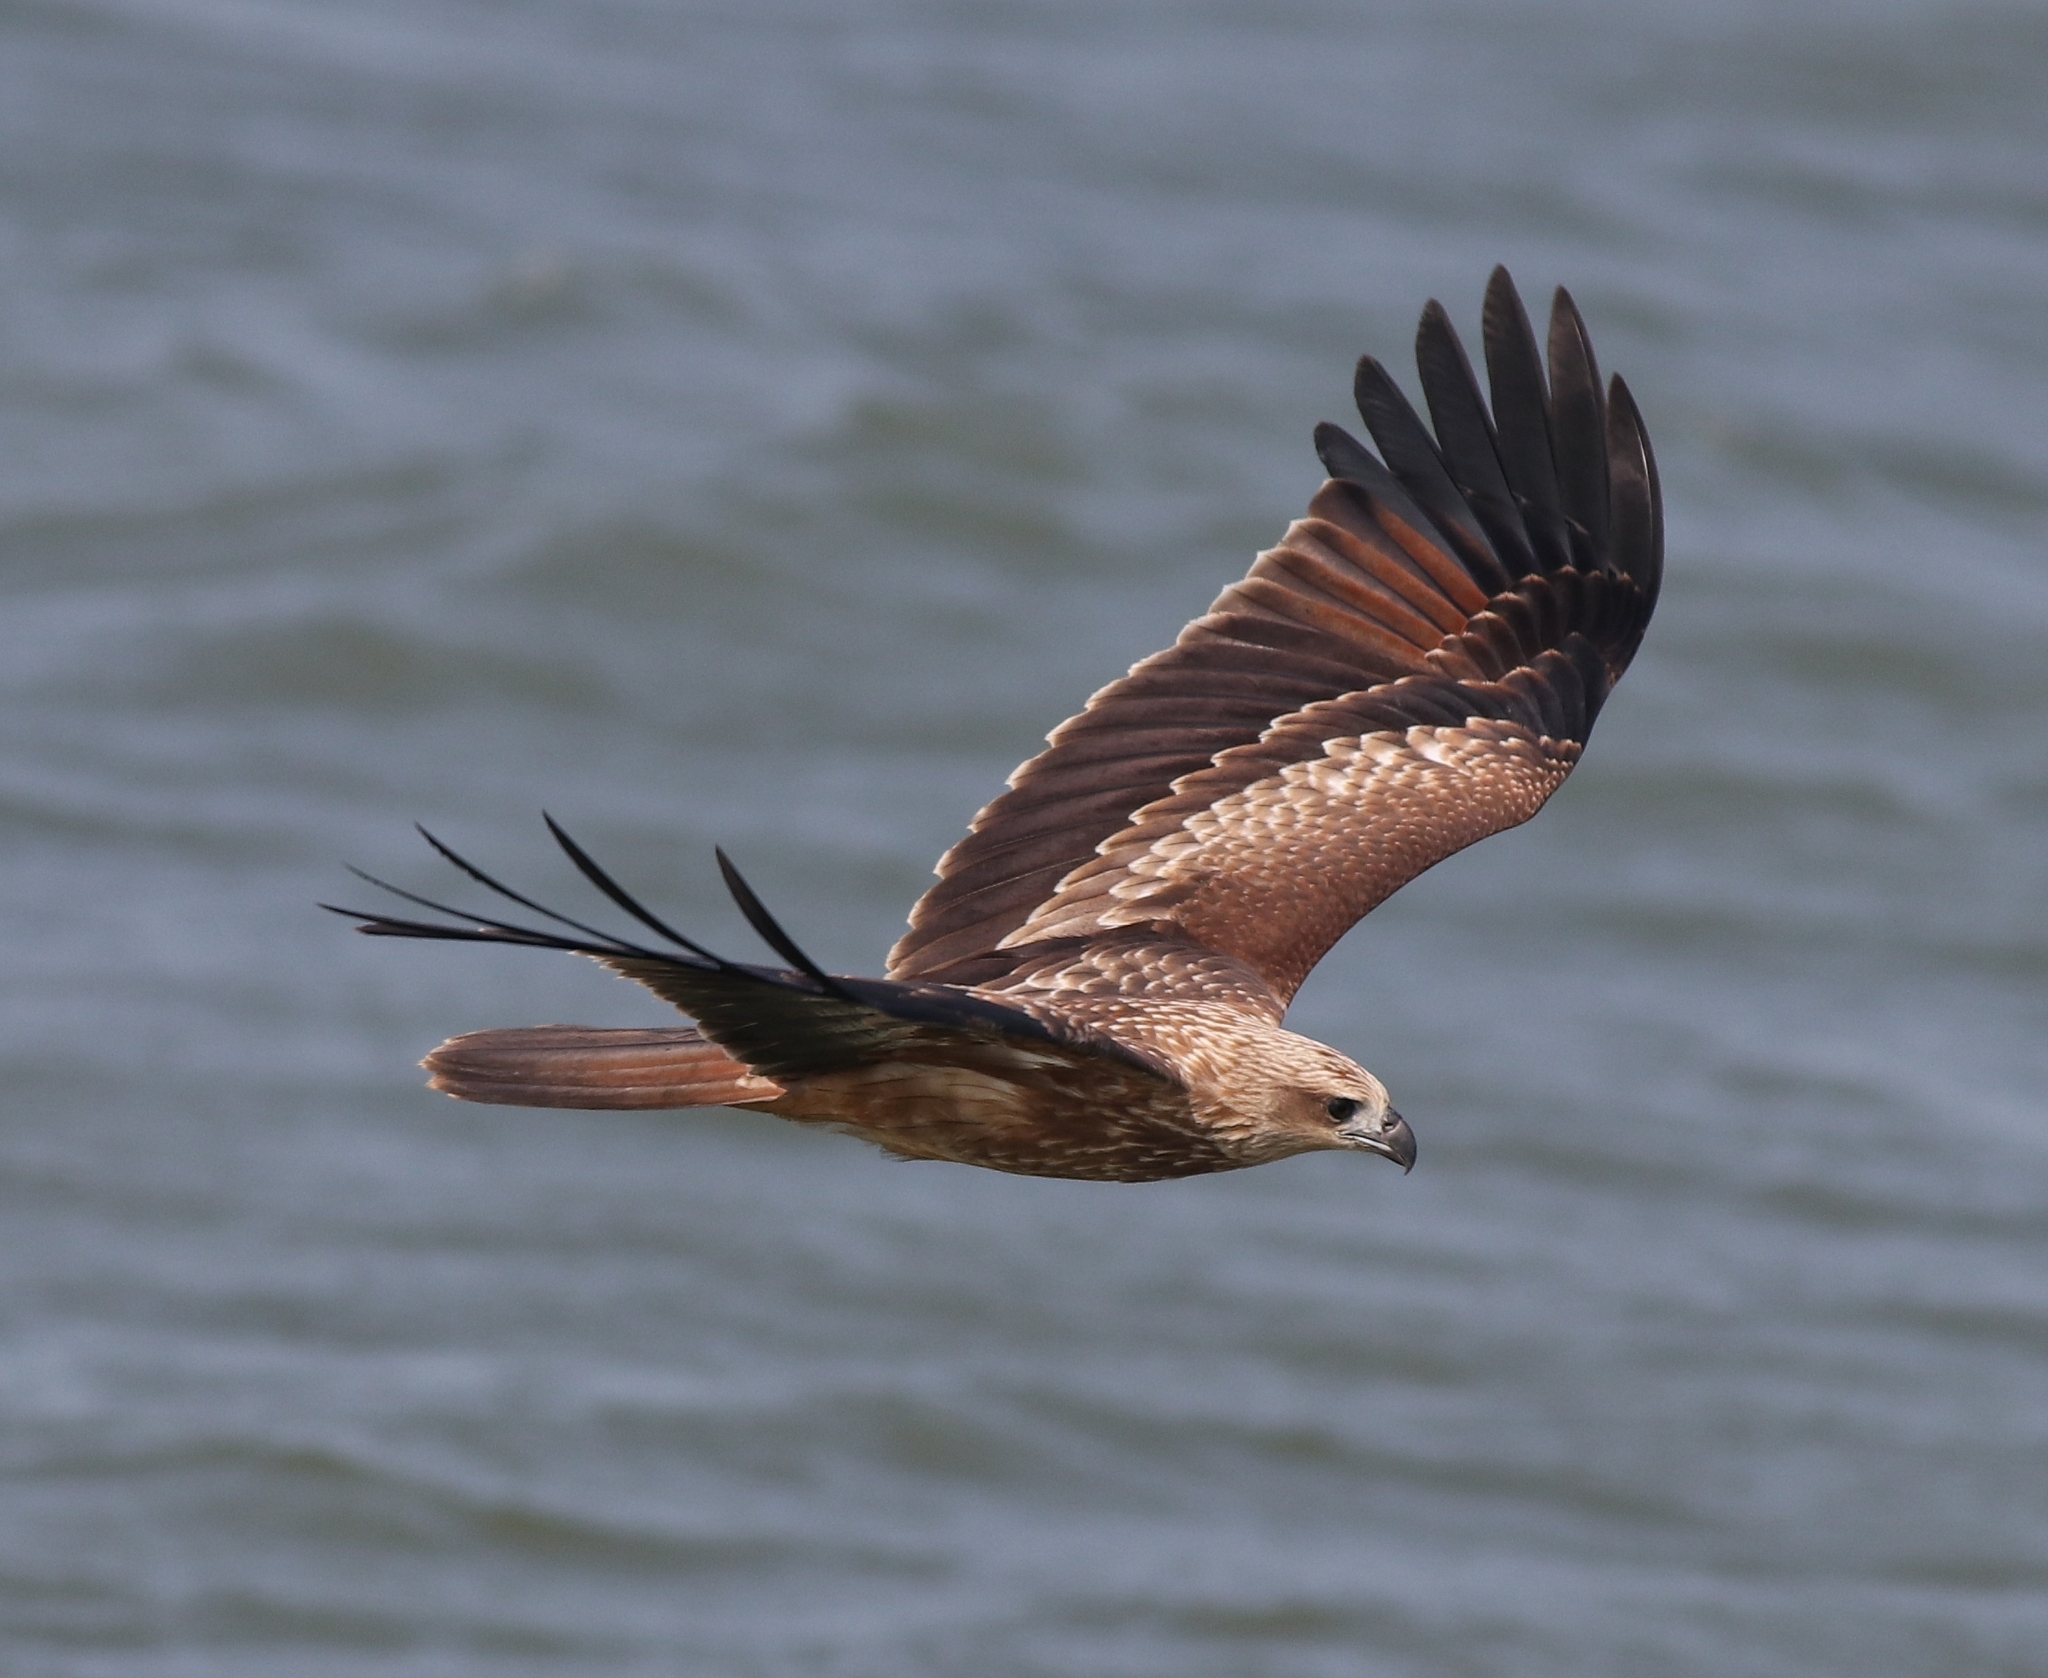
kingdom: Animalia
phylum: Chordata
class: Aves
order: Accipitriformes
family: Accipitridae
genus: Haliastur
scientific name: Haliastur indus
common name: Brahminy kite
